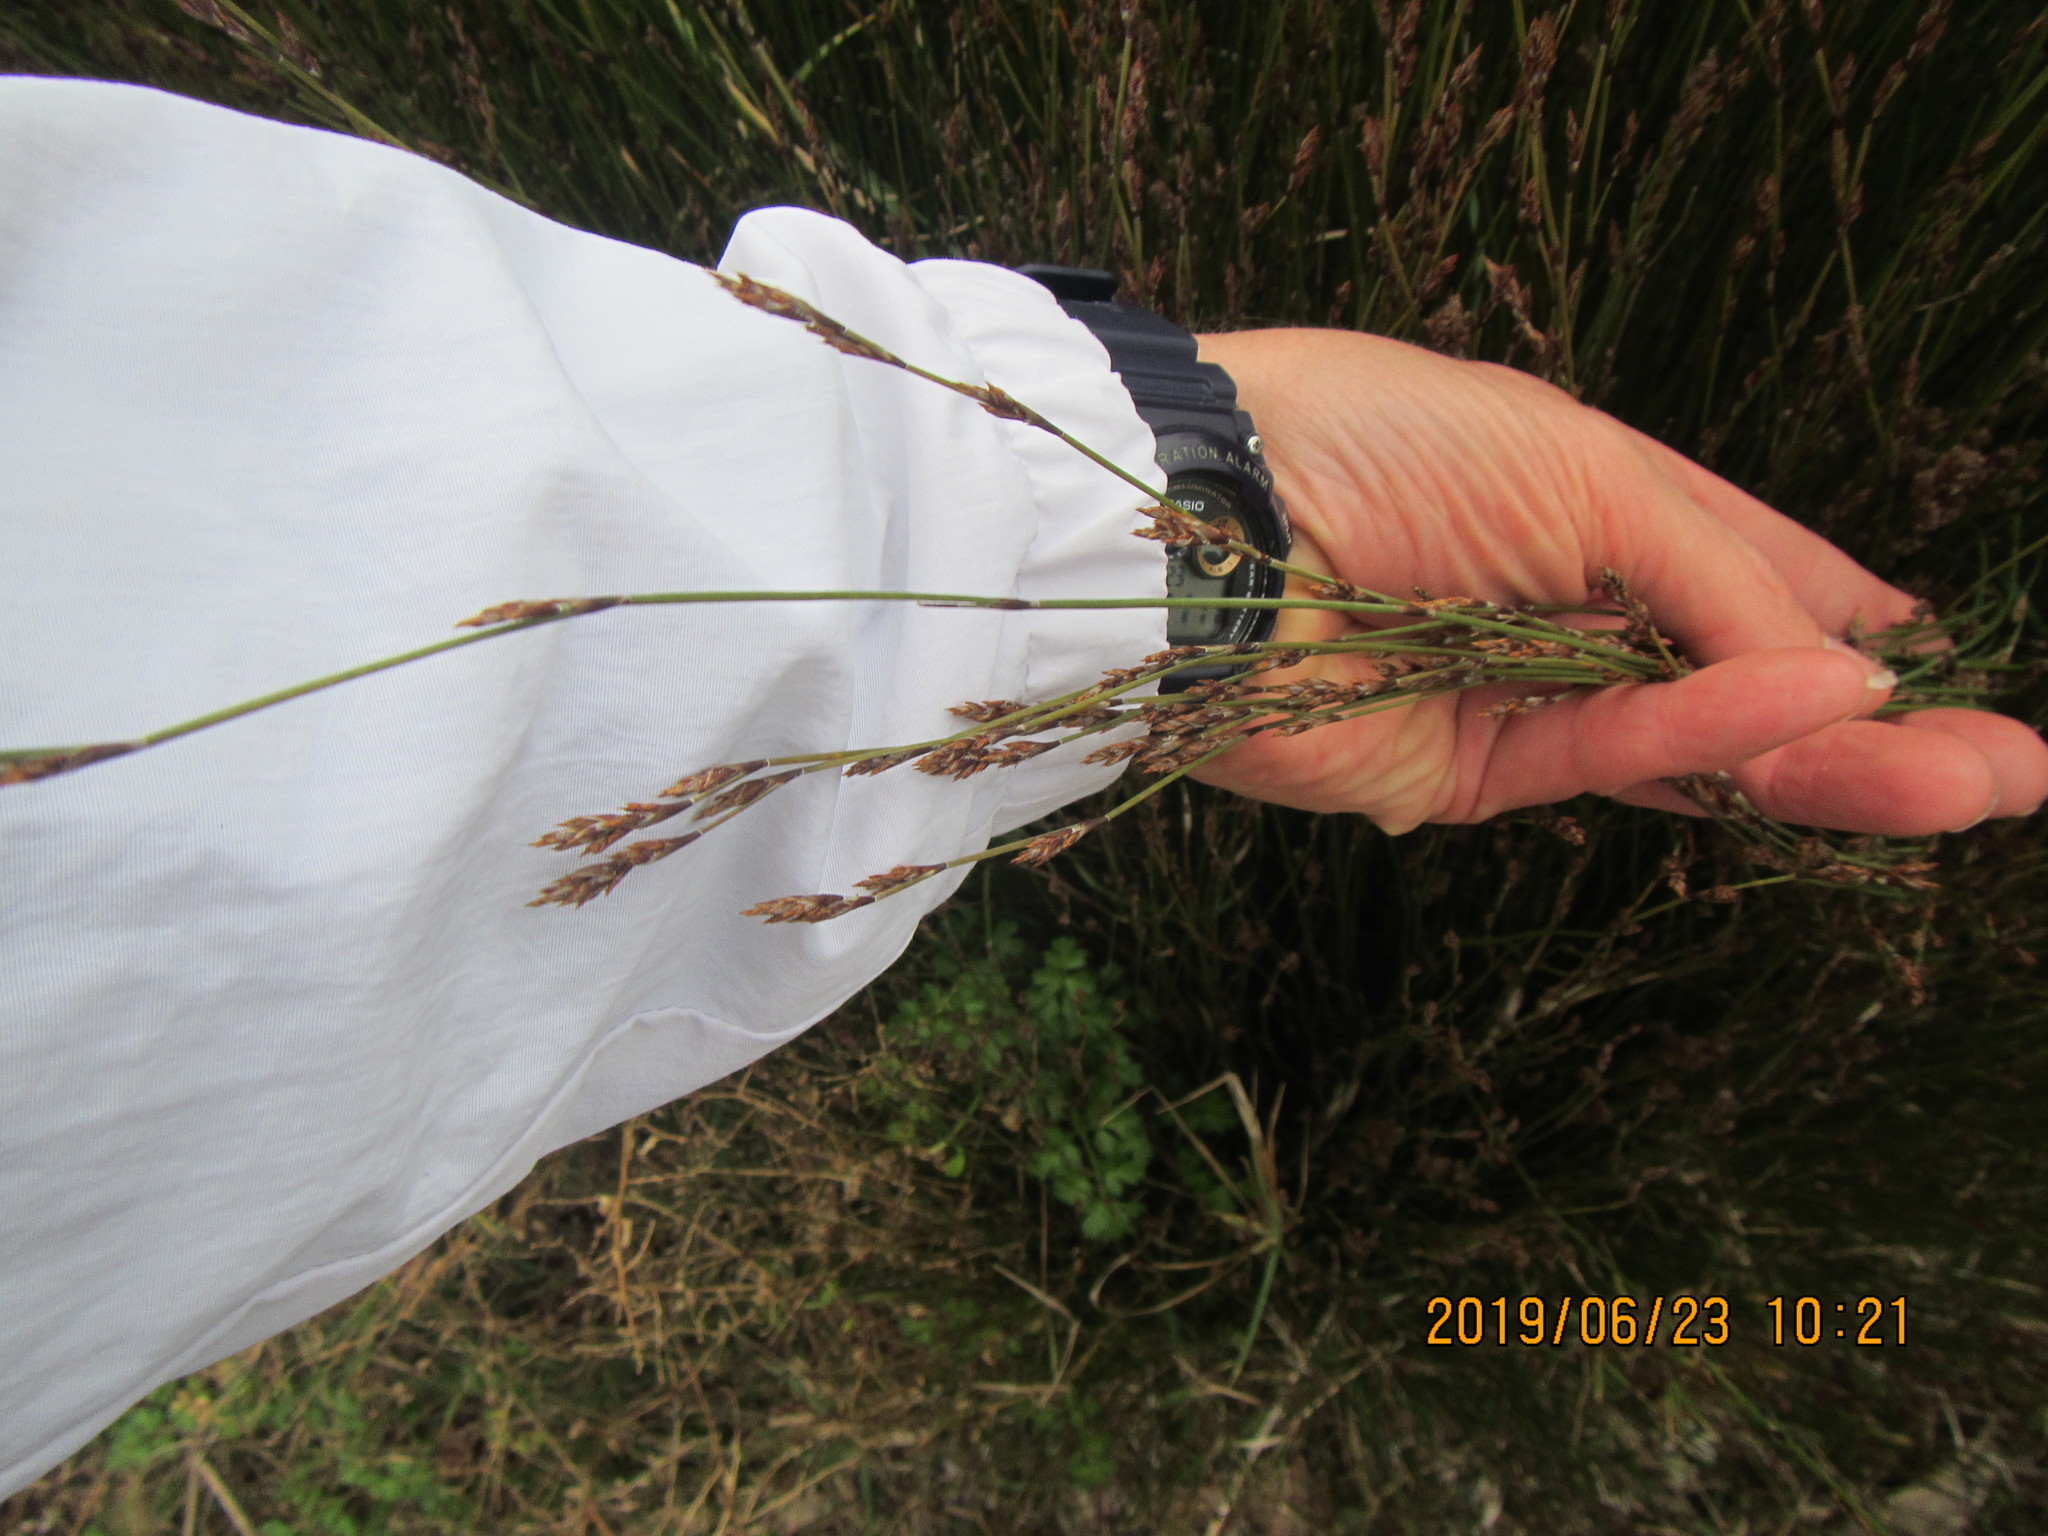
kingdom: Plantae
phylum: Tracheophyta
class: Liliopsida
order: Poales
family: Restionaceae
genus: Apodasmia
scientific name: Apodasmia similis
